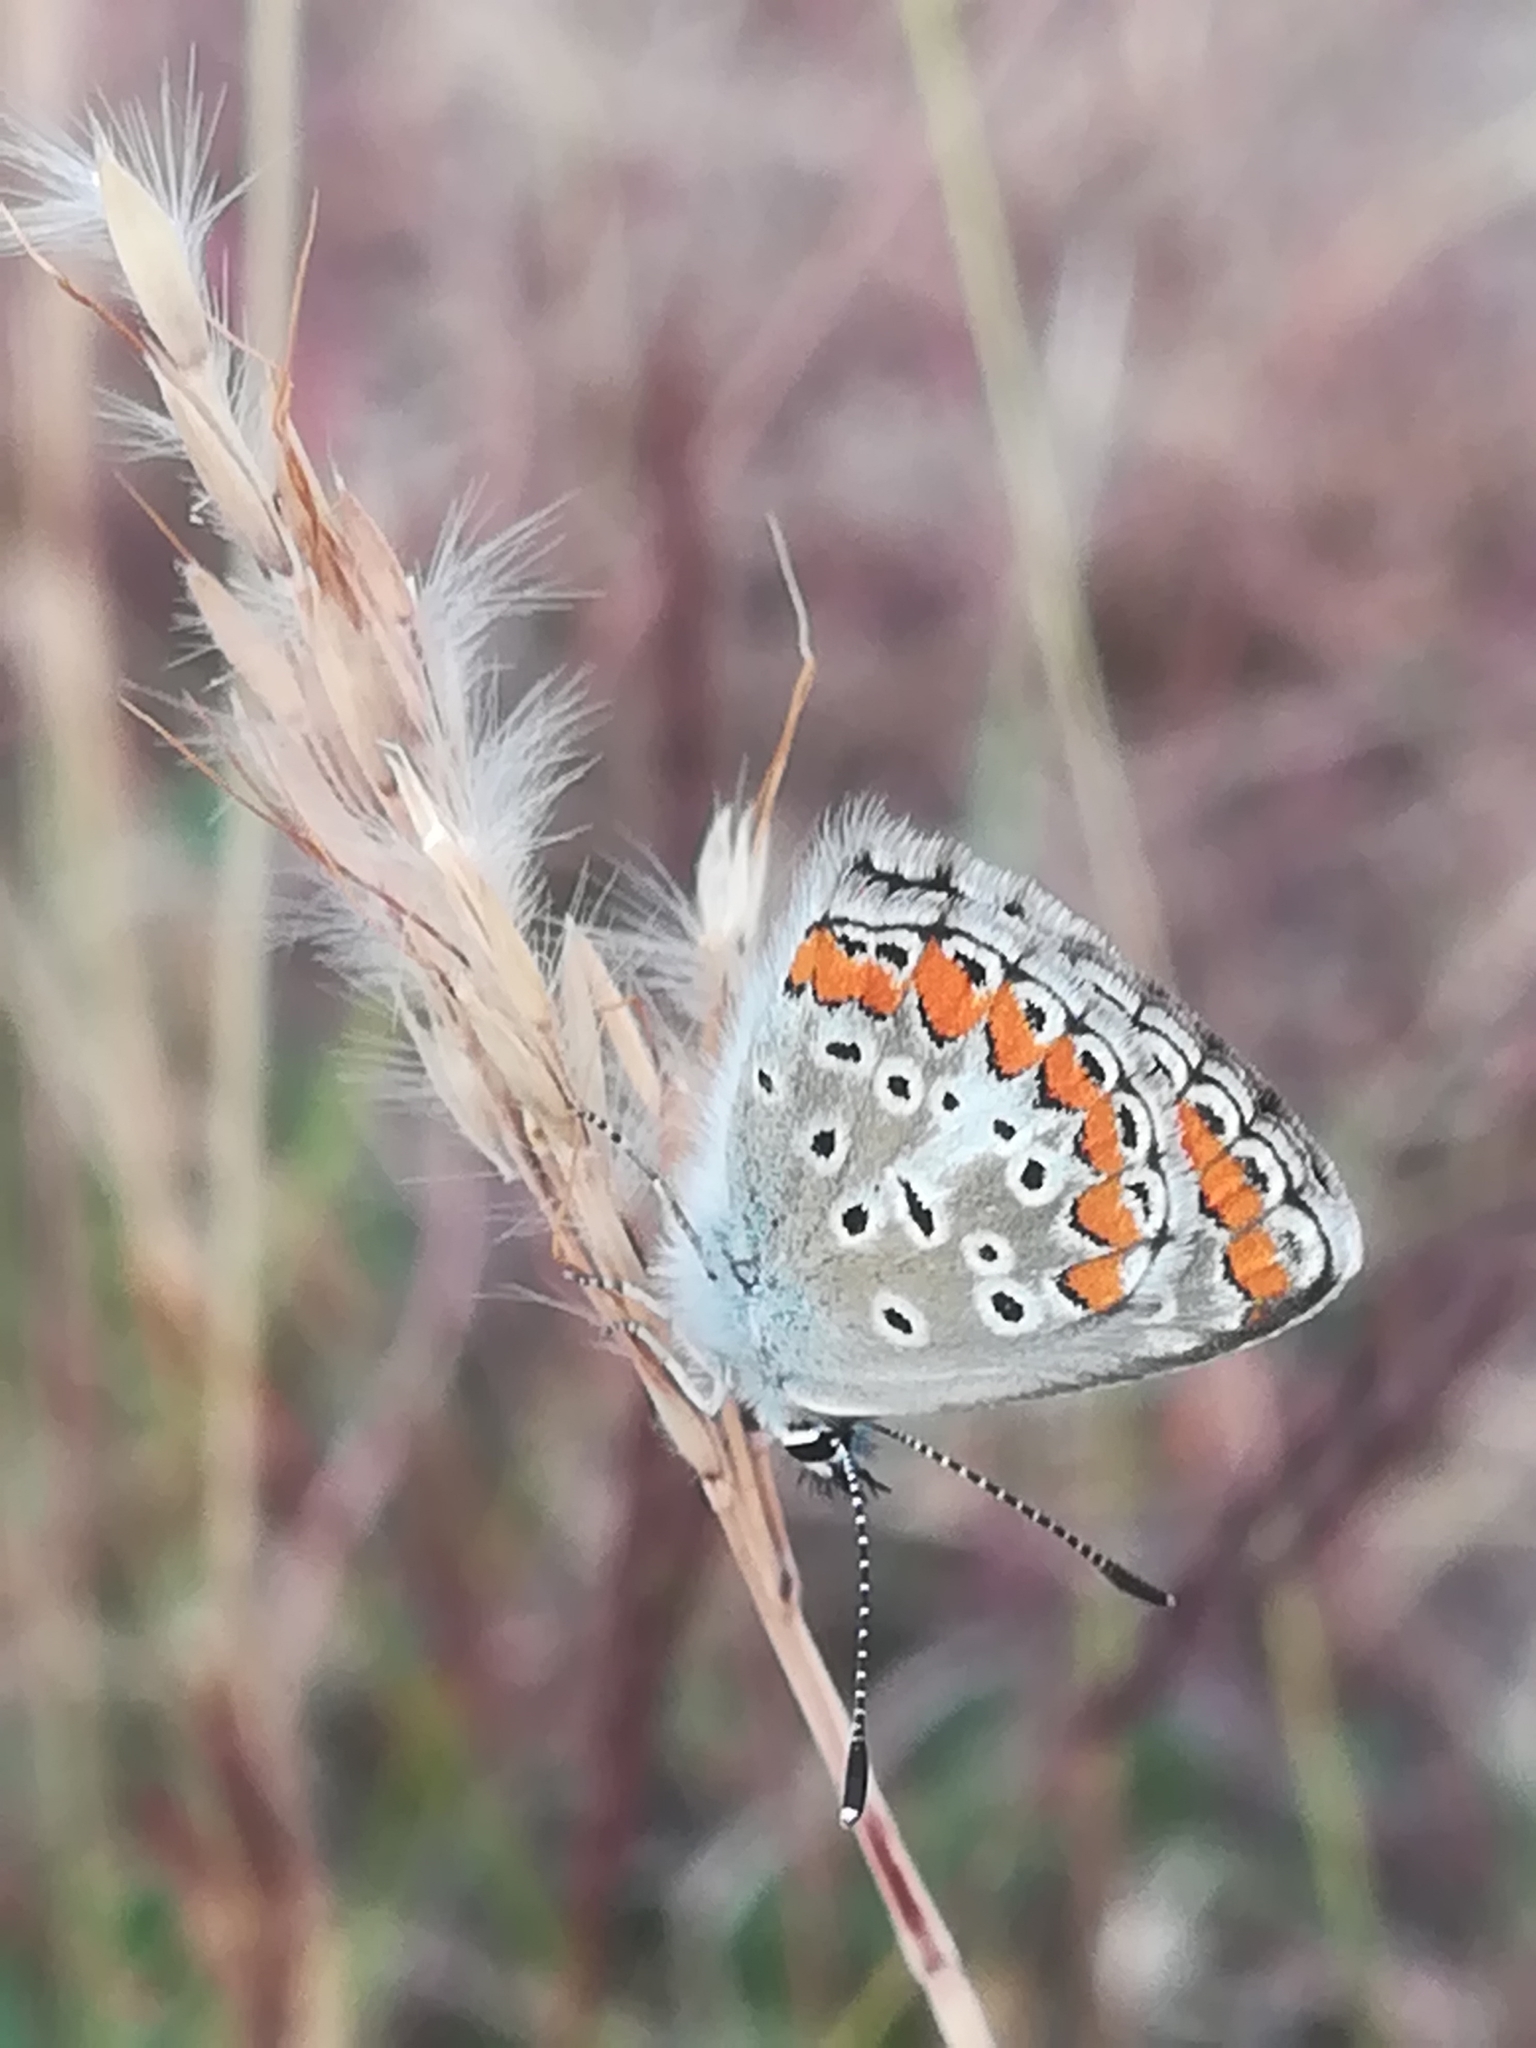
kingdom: Animalia
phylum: Arthropoda
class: Insecta
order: Lepidoptera
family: Lycaenidae
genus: Aricia
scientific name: Aricia agestis
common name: Brown argus
